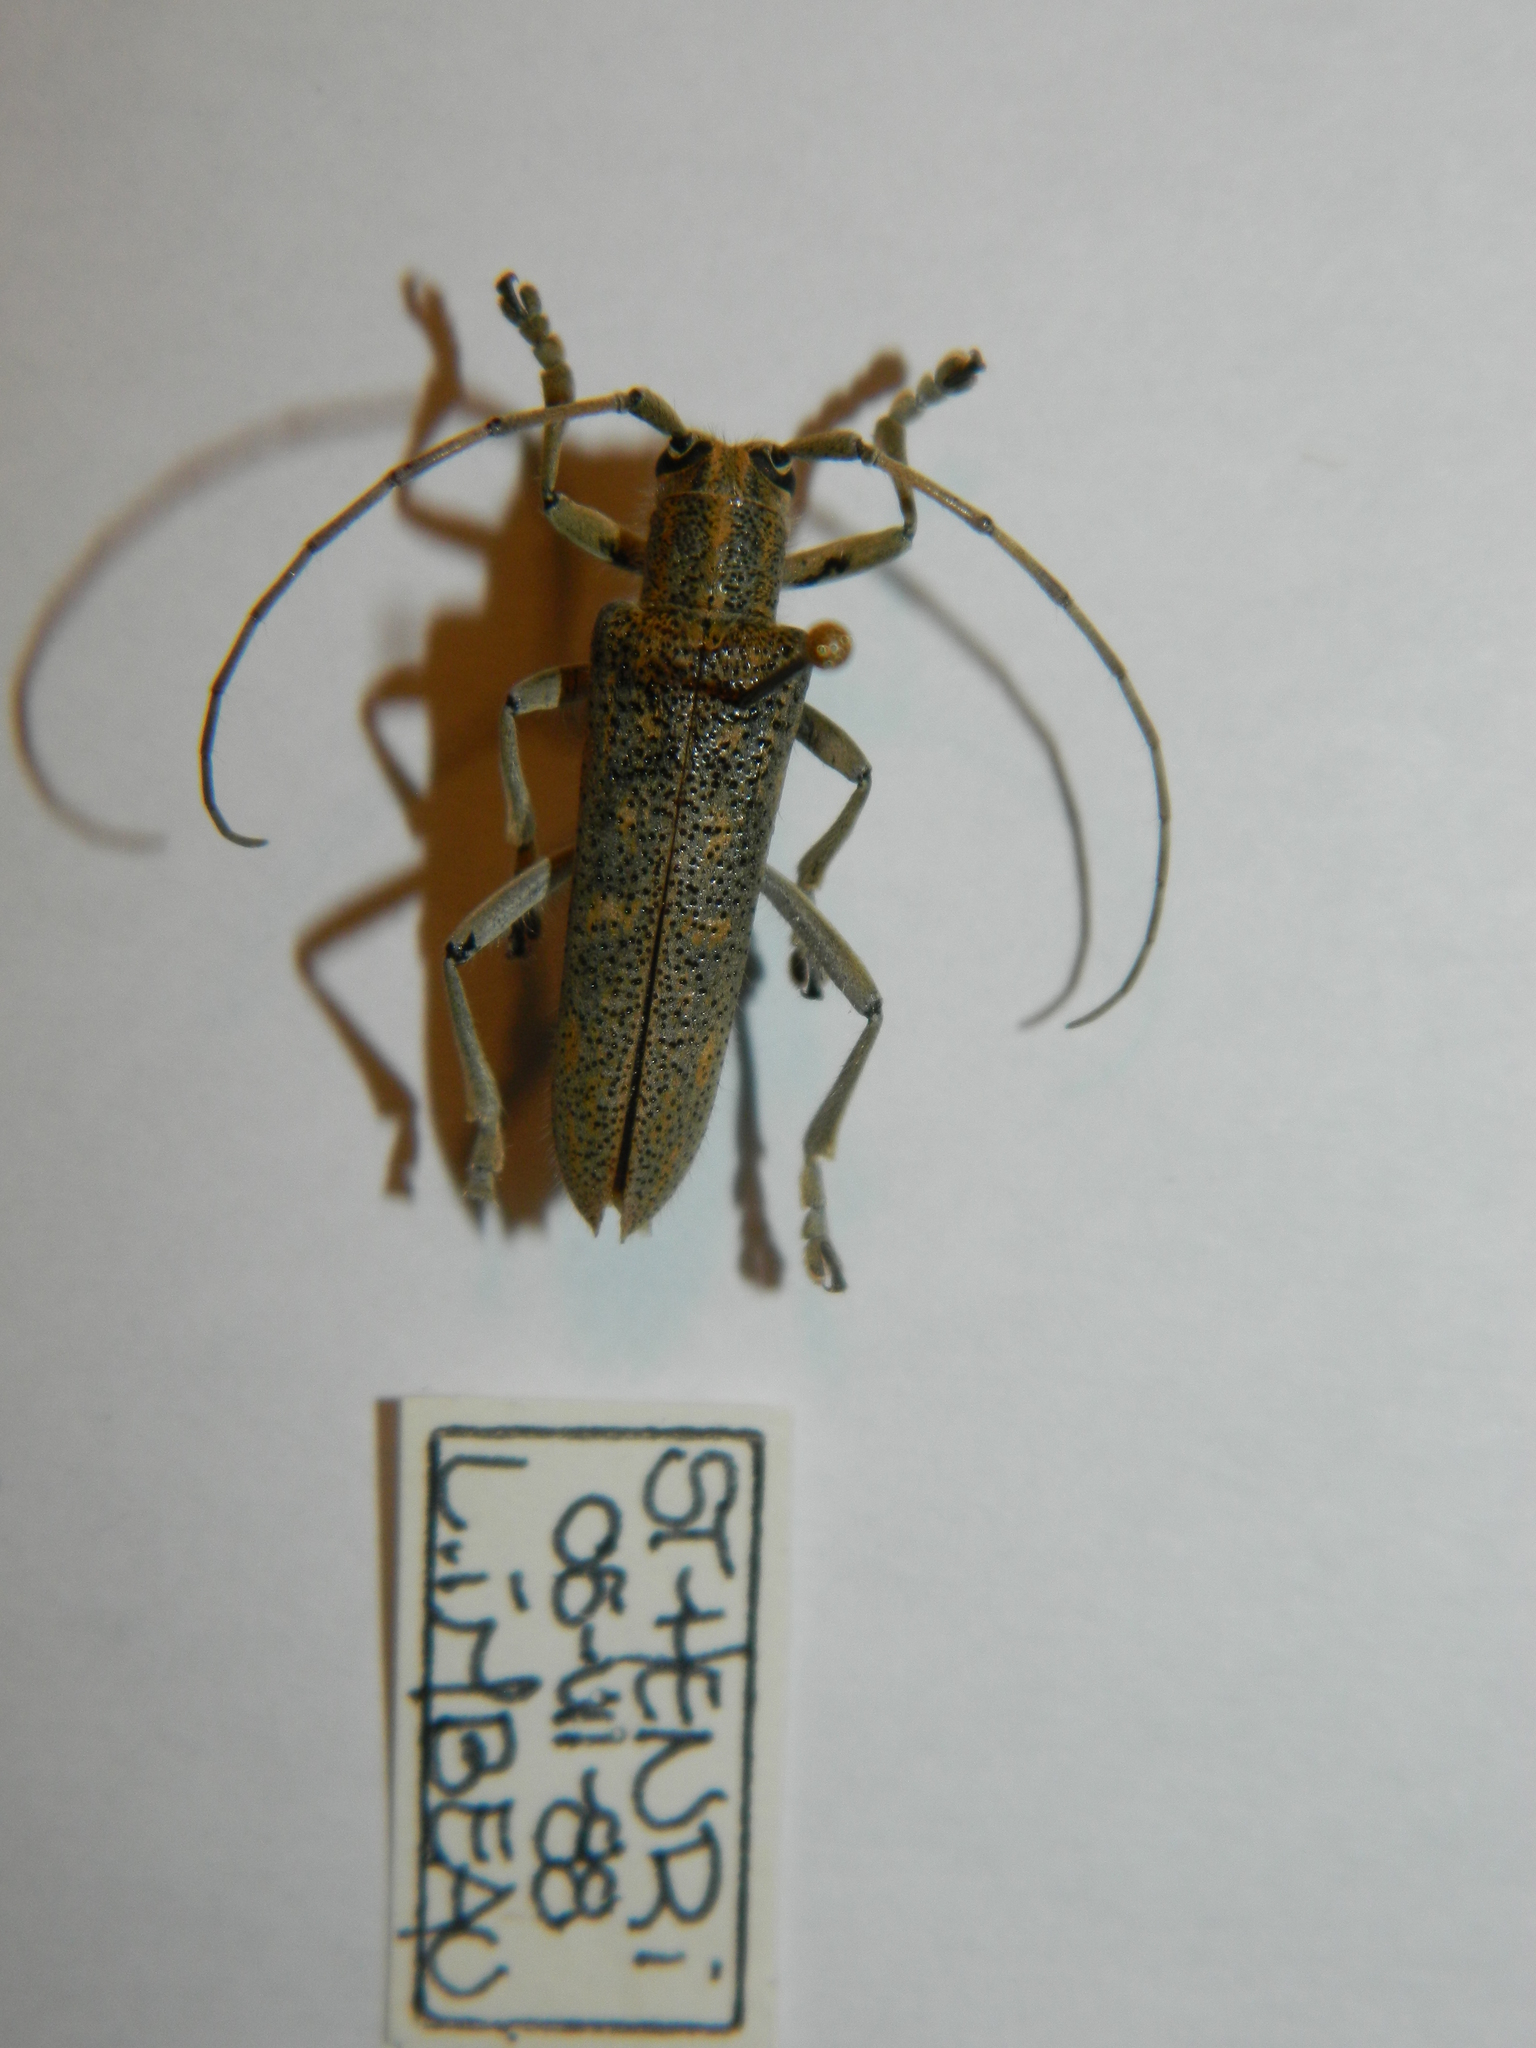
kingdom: Animalia
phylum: Arthropoda
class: Insecta
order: Coleoptera
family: Cerambycidae
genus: Saperda
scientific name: Saperda calcarata
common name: Poplar borer
